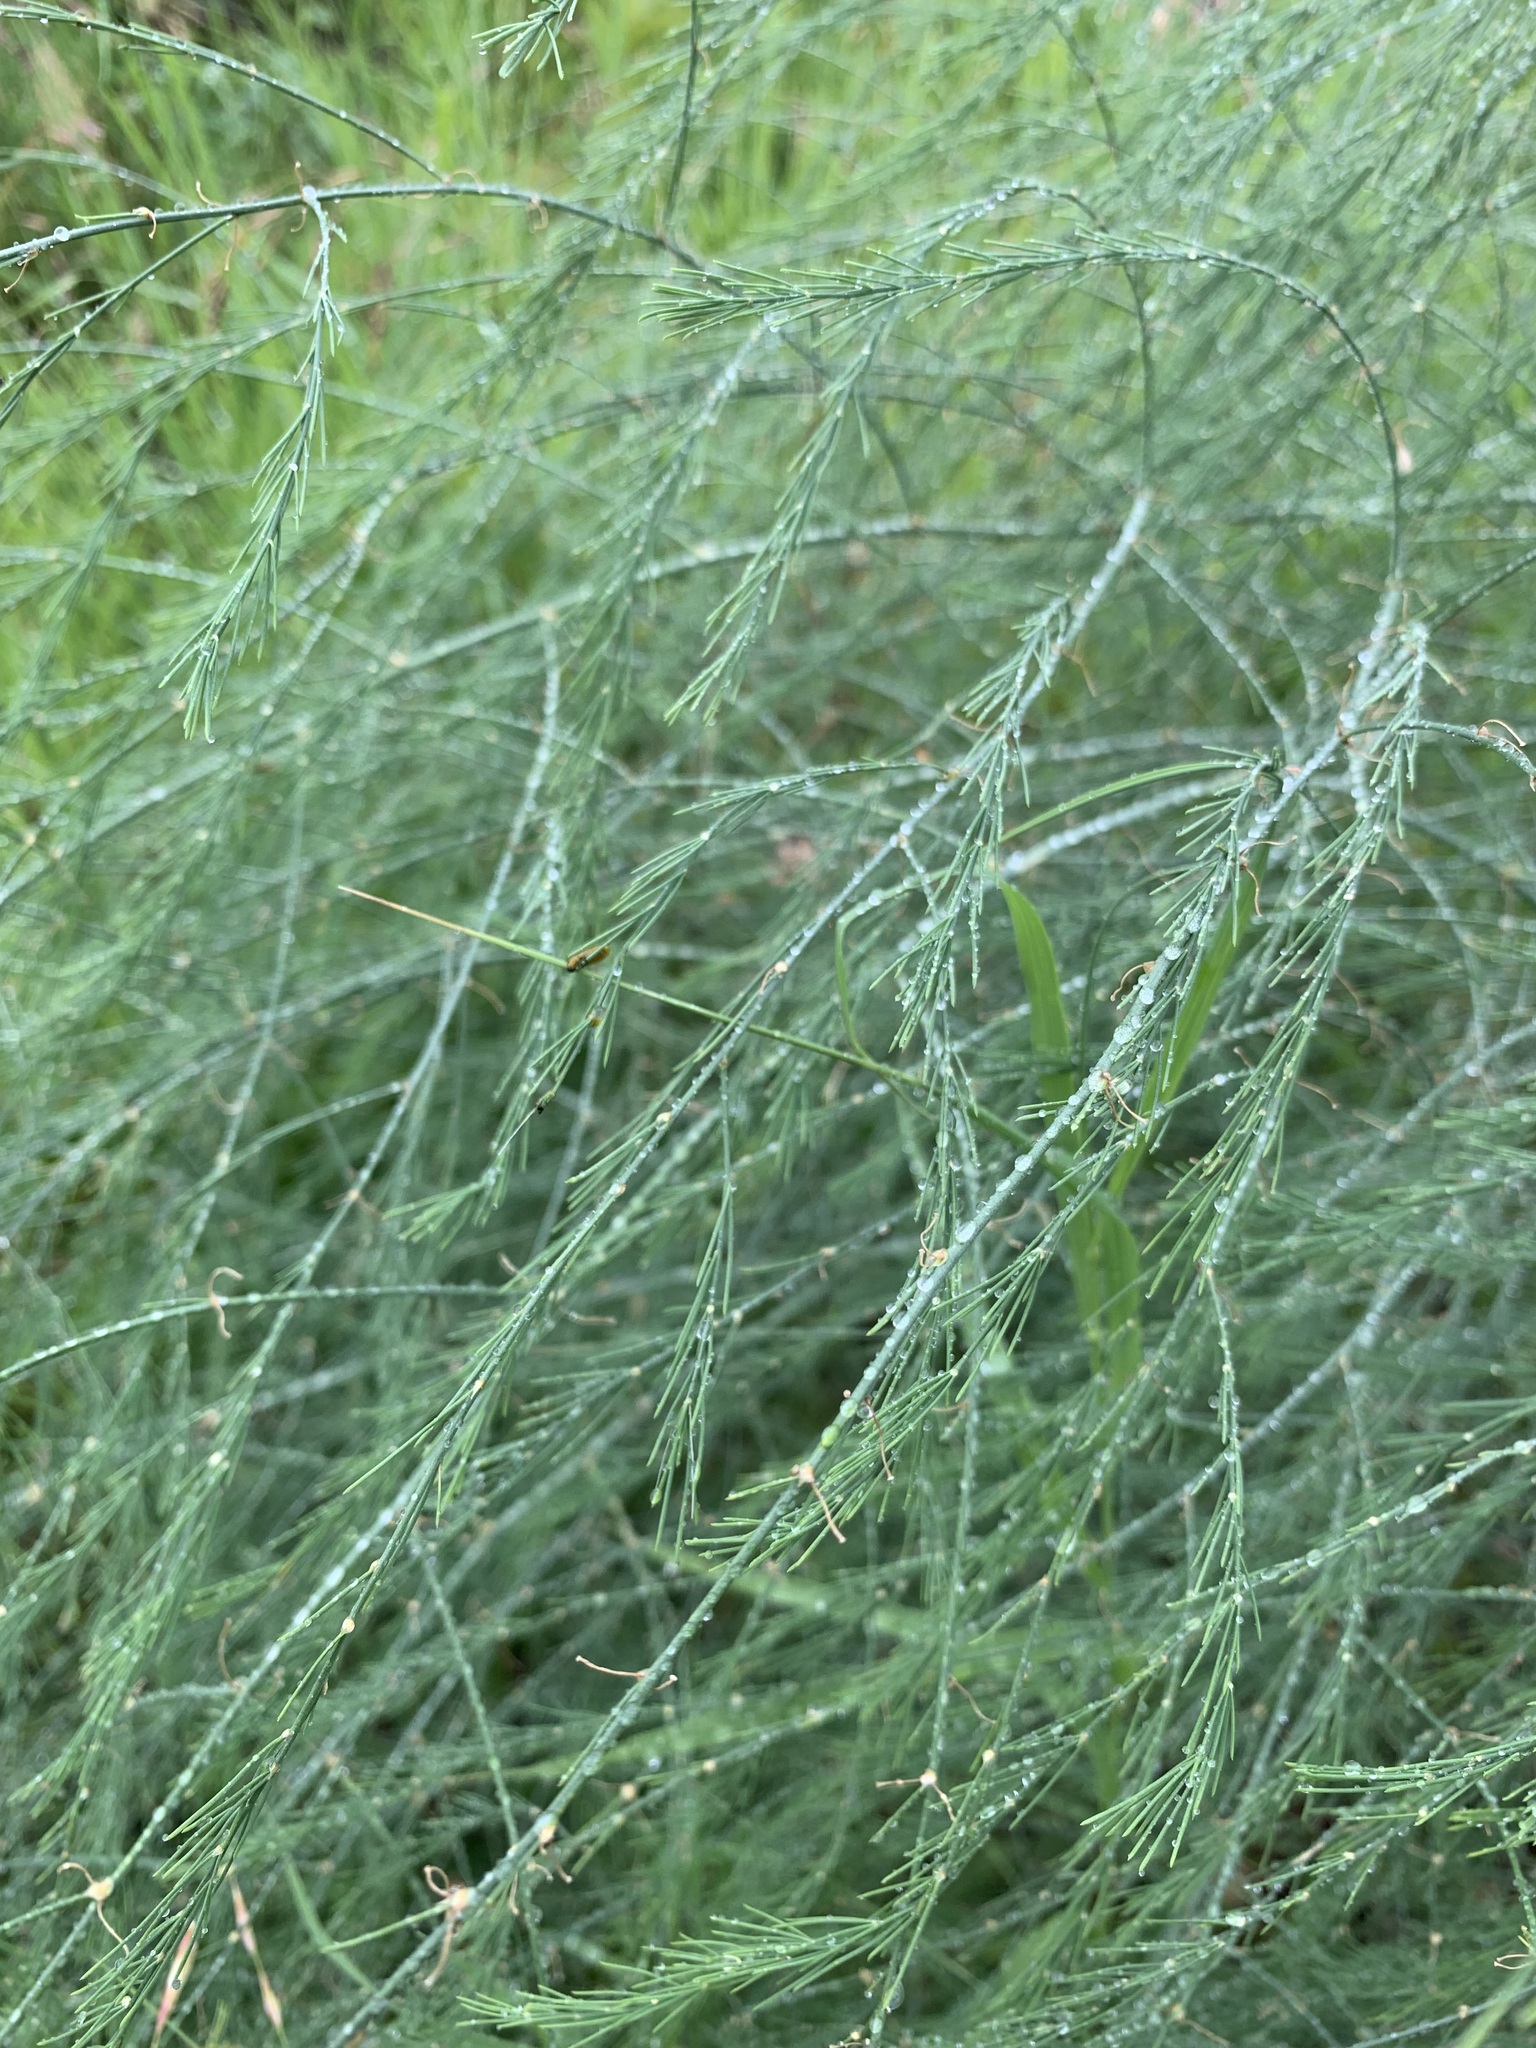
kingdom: Plantae
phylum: Tracheophyta
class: Liliopsida
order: Asparagales
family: Asparagaceae
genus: Asparagus
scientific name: Asparagus officinalis
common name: Garden asparagus
